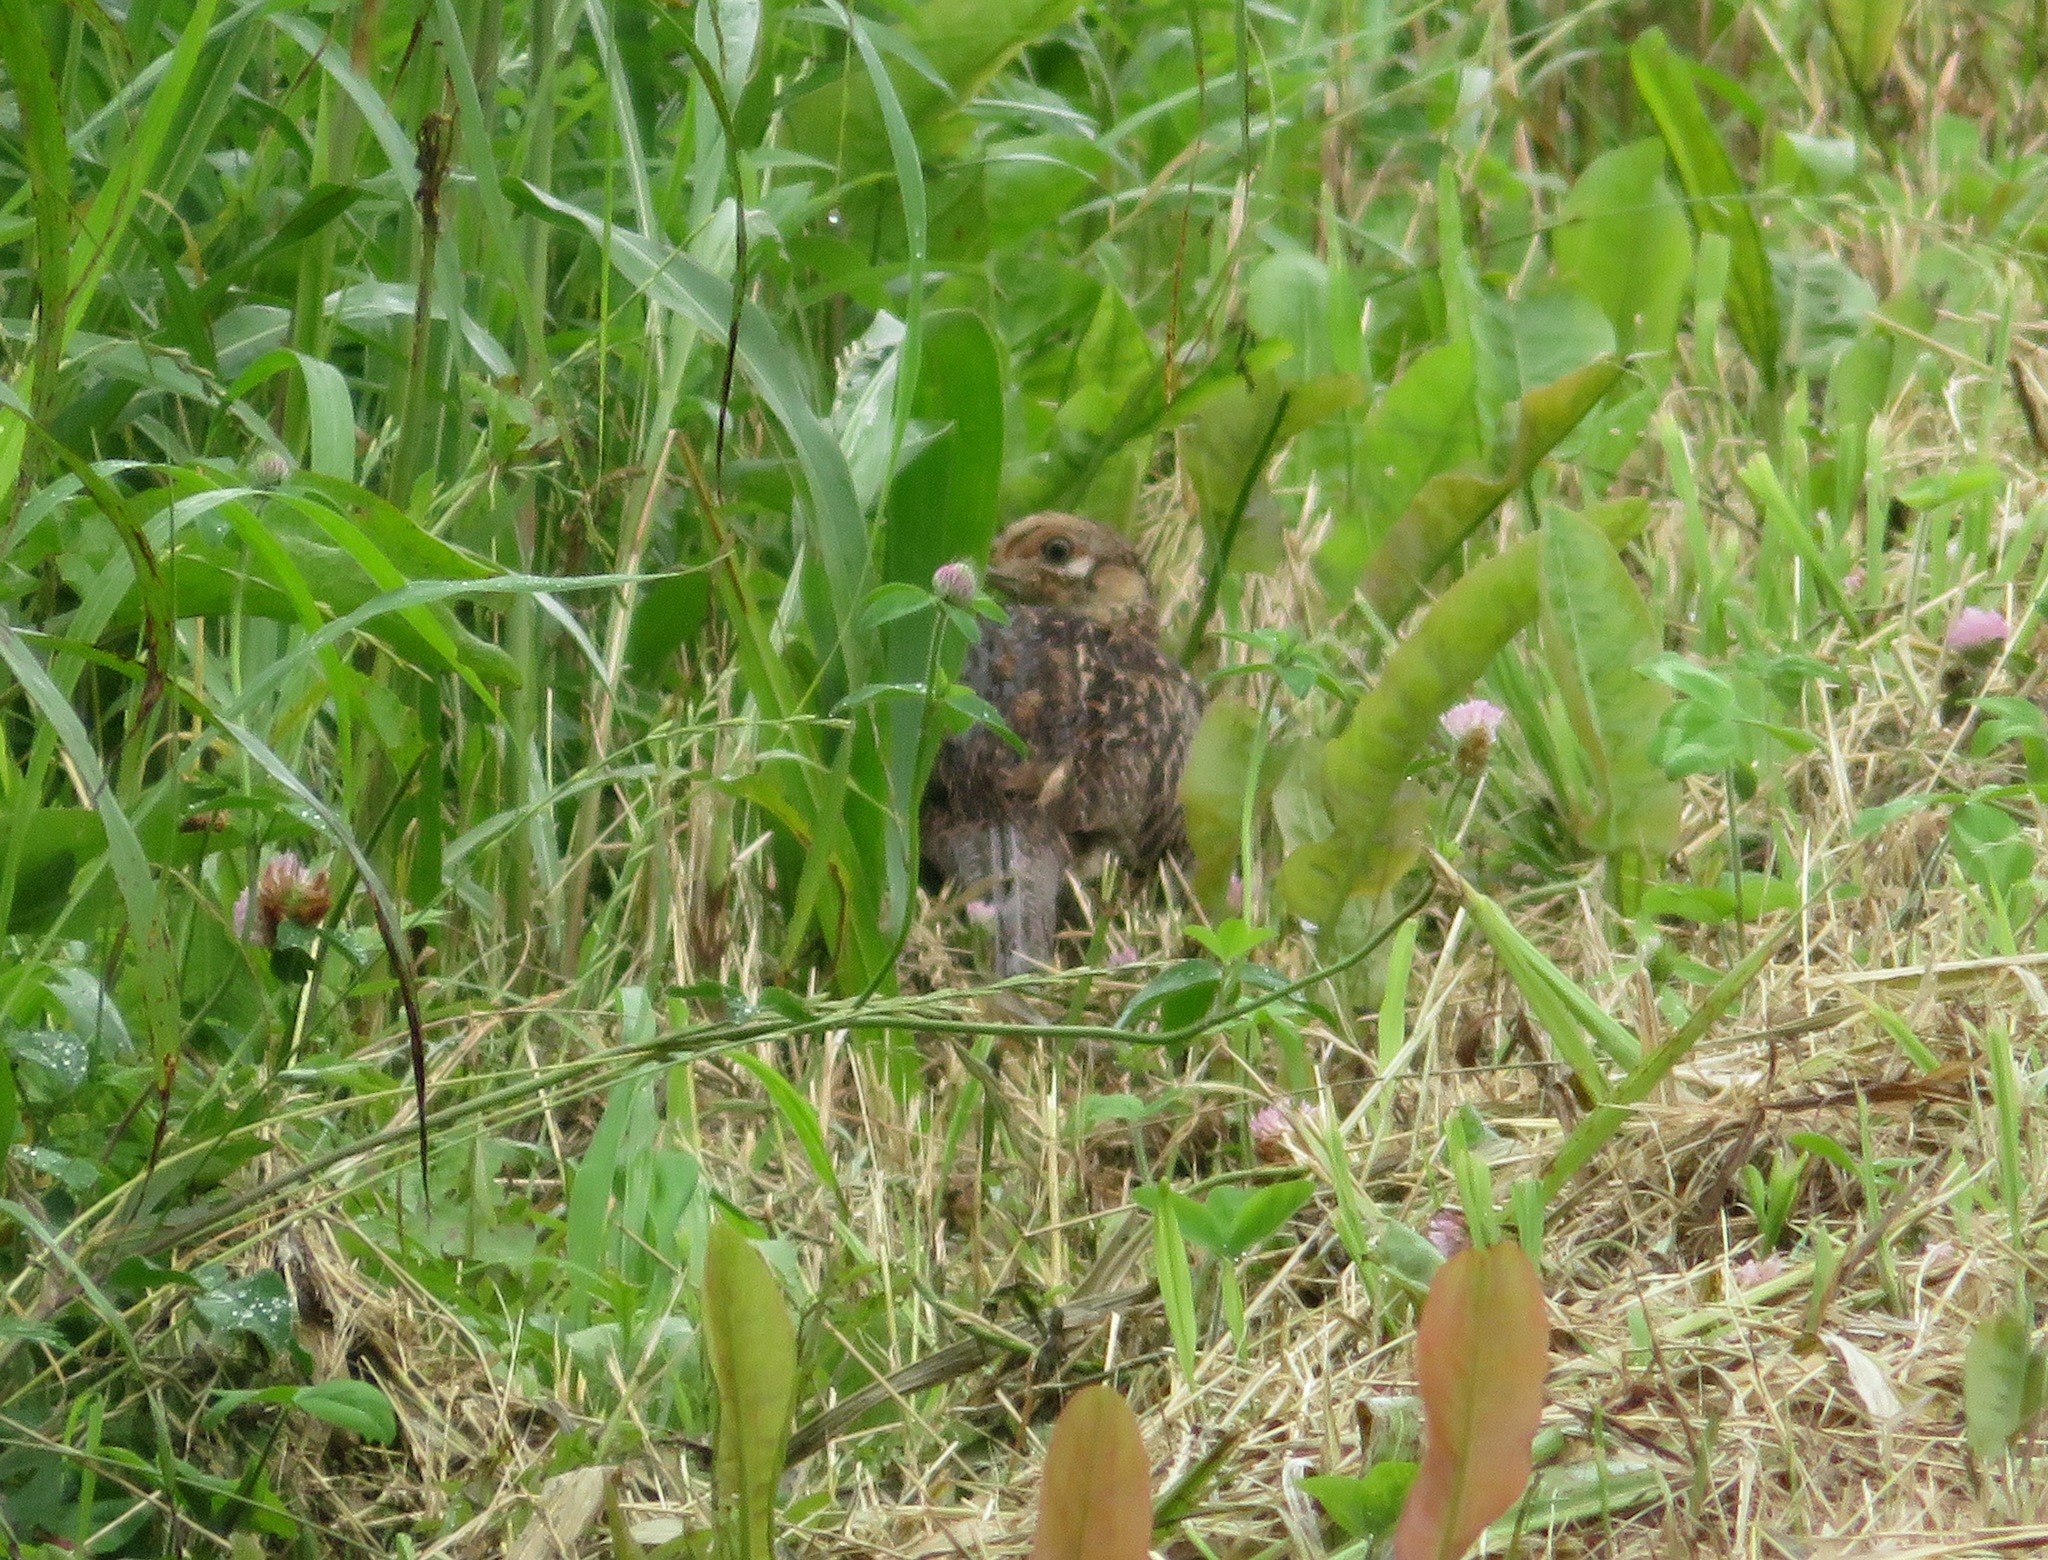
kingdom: Animalia
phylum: Chordata
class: Aves
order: Galliformes
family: Phasianidae
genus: Phasianus
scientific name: Phasianus versicolor
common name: Green pheasant
